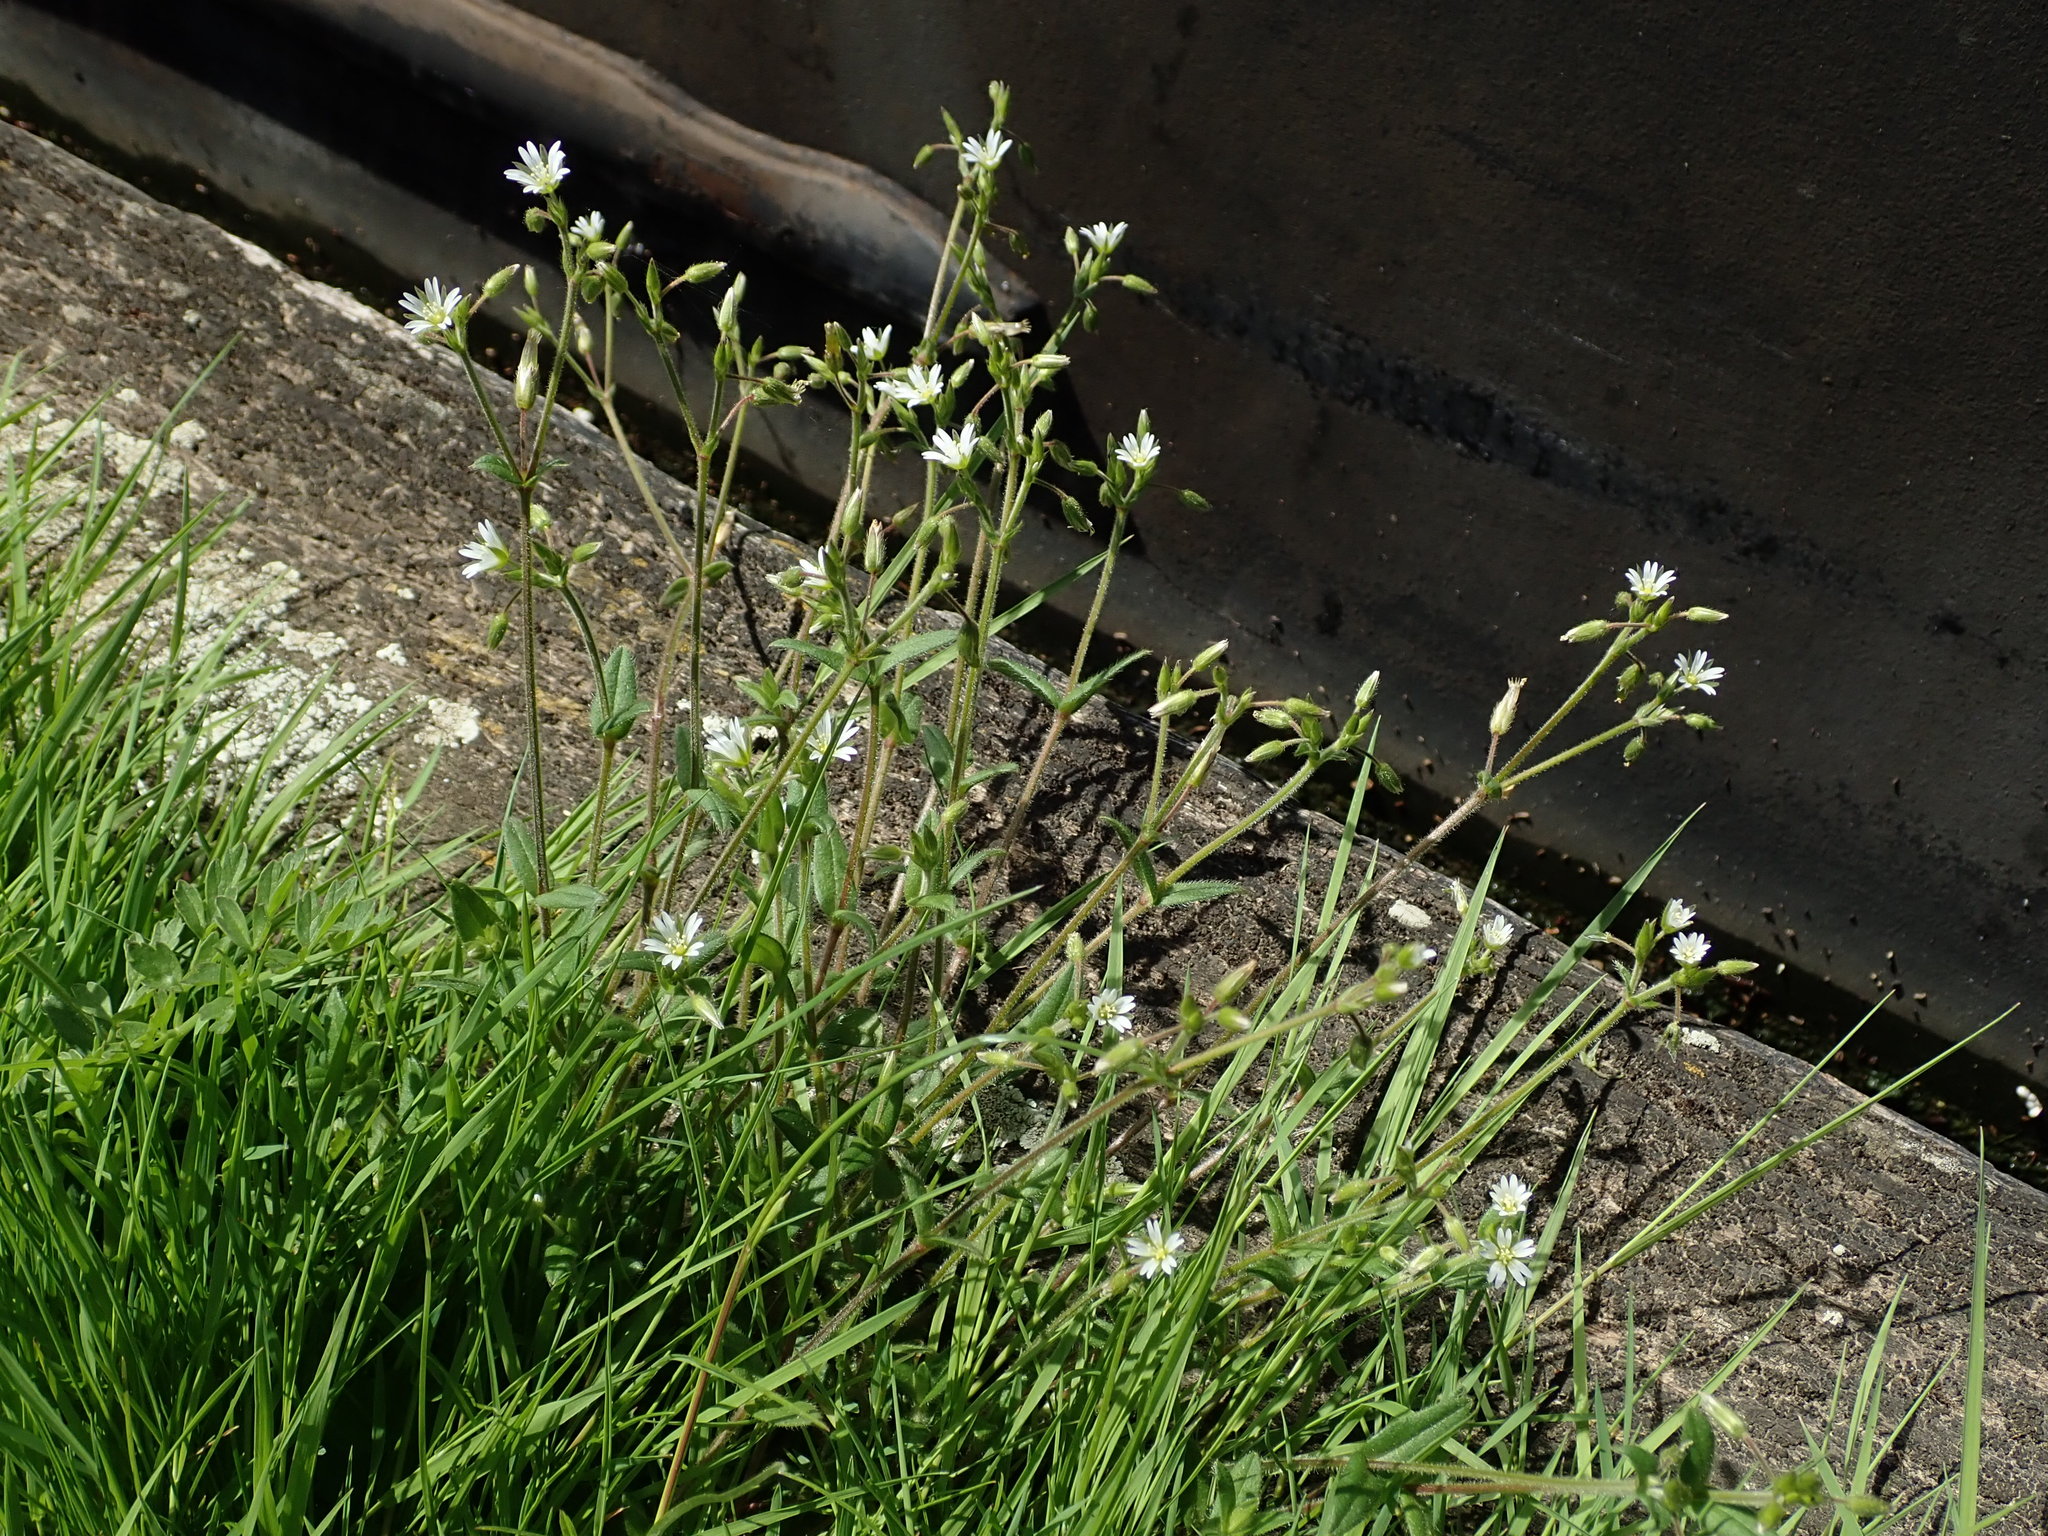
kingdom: Plantae
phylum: Tracheophyta
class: Magnoliopsida
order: Caryophyllales
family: Caryophyllaceae
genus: Cerastium
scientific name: Cerastium fontanum
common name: Common mouse-ear
